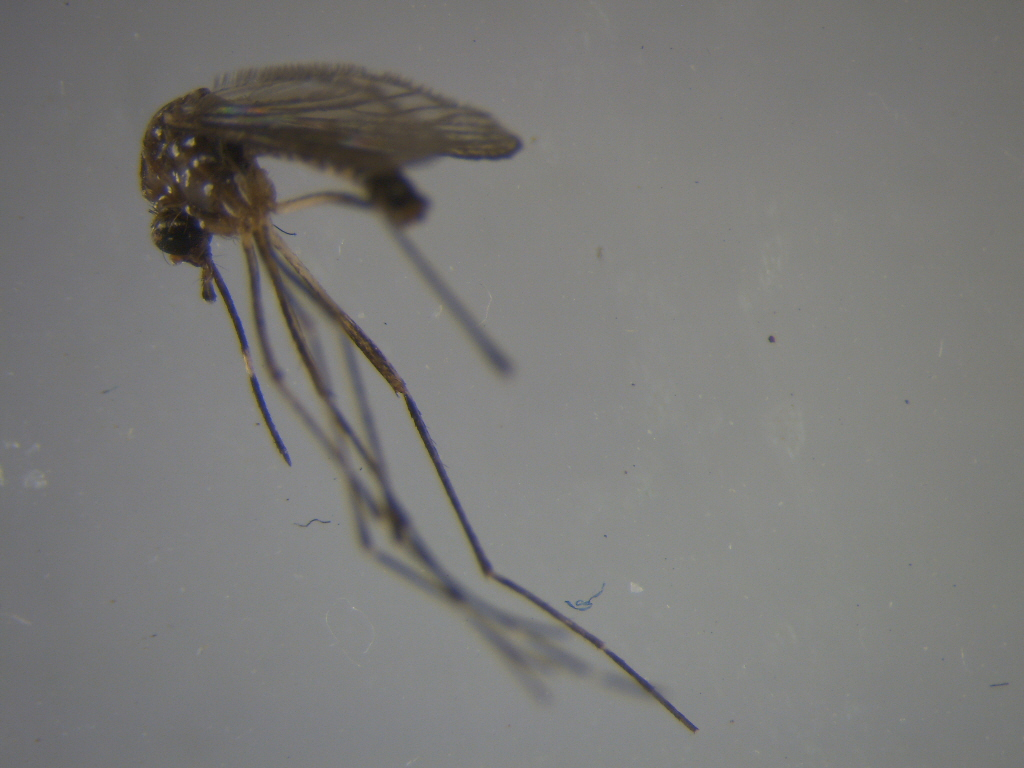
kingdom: Animalia
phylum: Arthropoda
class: Insecta
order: Diptera
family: Culicidae
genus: Aedes
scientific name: Aedes notoscriptus
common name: Australian backyard mosquito
